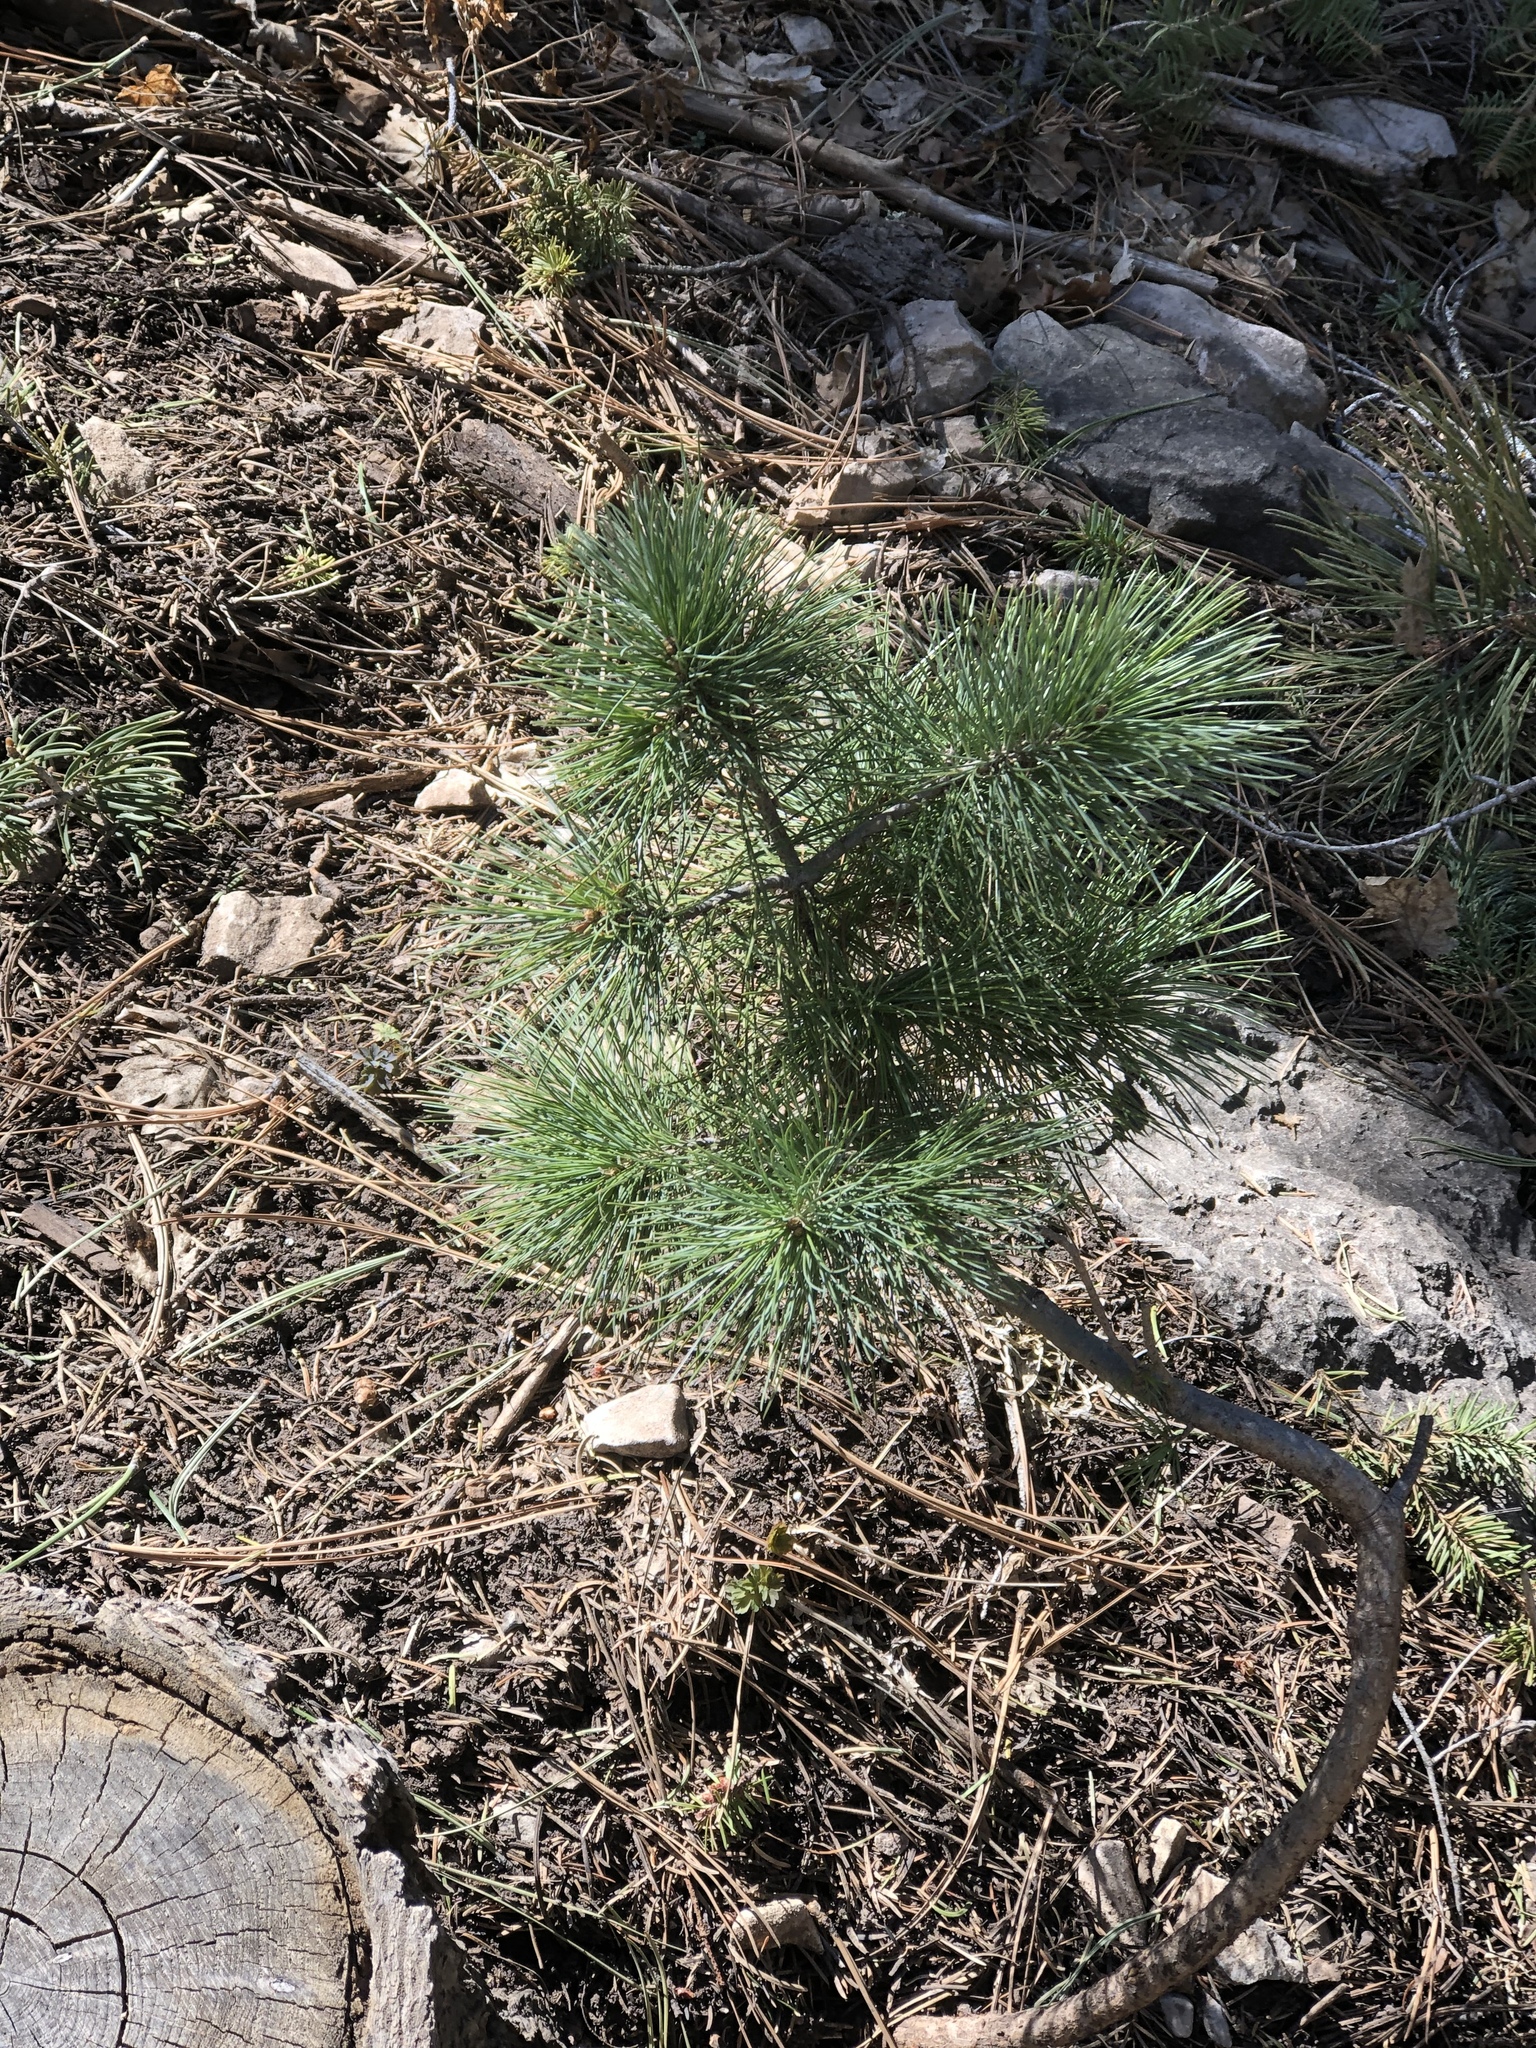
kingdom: Plantae
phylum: Tracheophyta
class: Pinopsida
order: Pinales
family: Pinaceae
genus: Pinus
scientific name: Pinus strobiformis
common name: Southwestern white pine
